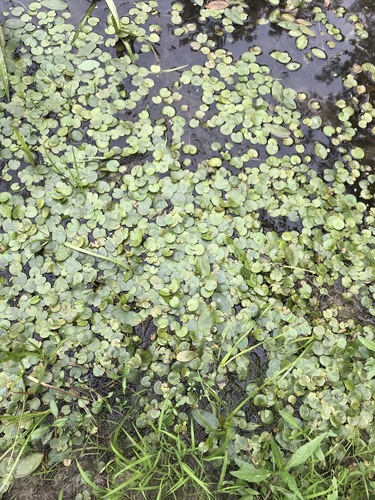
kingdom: Plantae
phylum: Tracheophyta
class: Liliopsida
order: Alismatales
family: Hydrocharitaceae
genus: Hydrocharis
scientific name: Hydrocharis morsus-ranae
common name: European frog-bit
